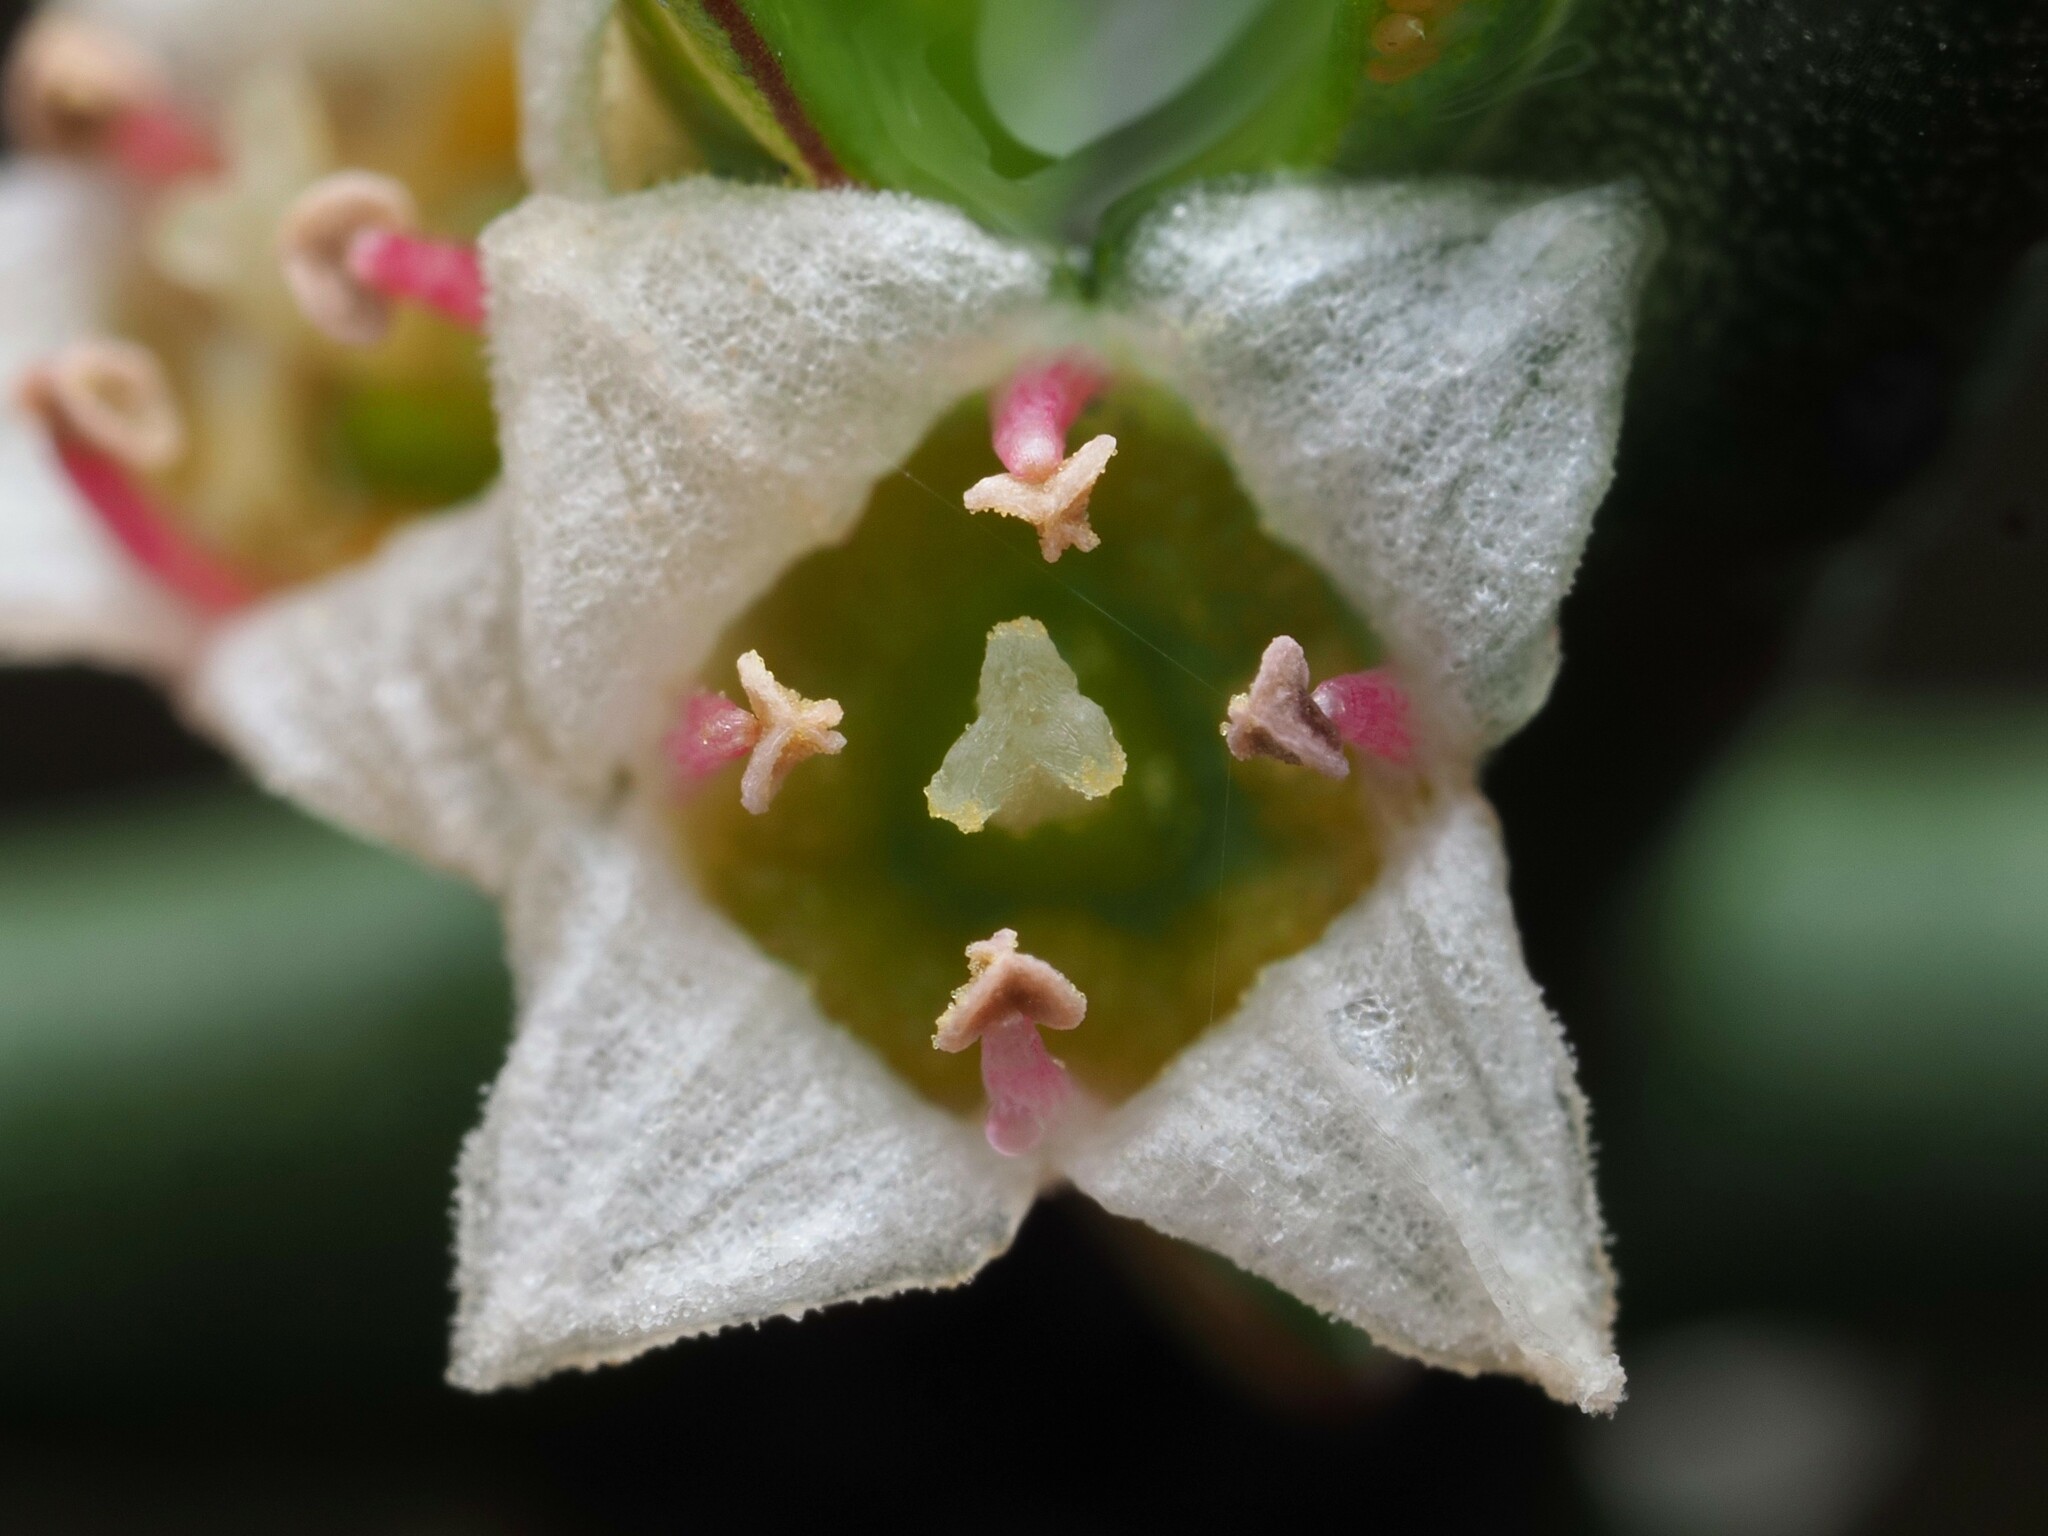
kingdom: Plantae
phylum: Tracheophyta
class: Magnoliopsida
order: Rosales
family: Rhamnaceae
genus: Discaria
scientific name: Discaria toumatou
